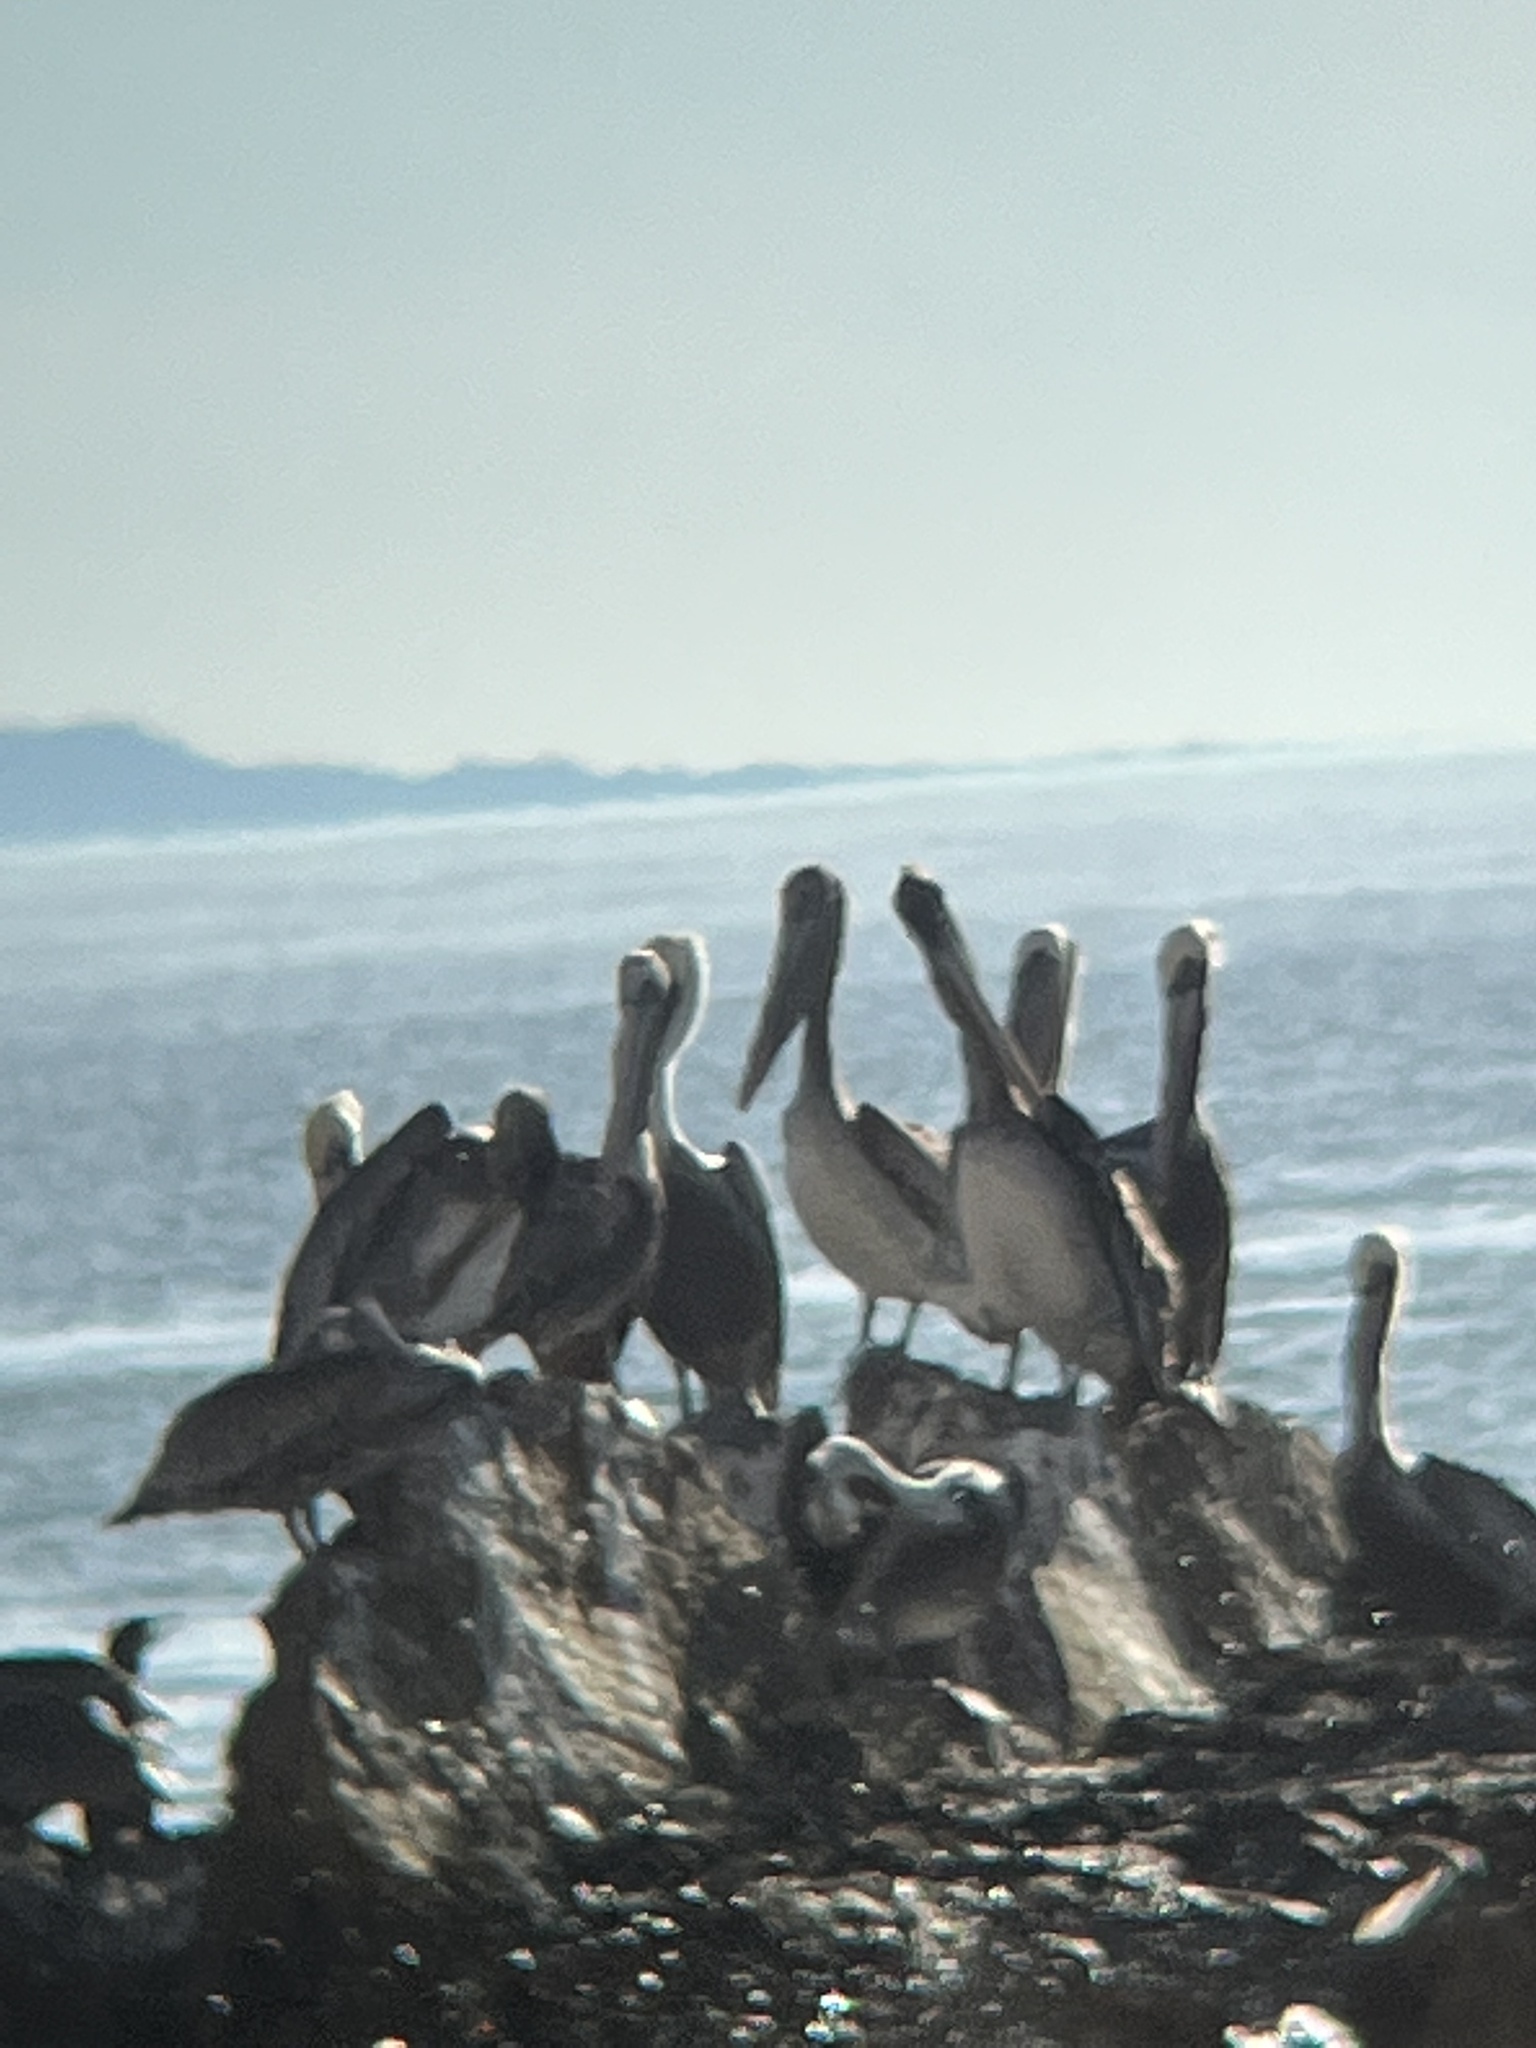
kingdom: Animalia
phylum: Chordata
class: Aves
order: Pelecaniformes
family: Pelecanidae
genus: Pelecanus
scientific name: Pelecanus occidentalis
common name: Brown pelican
